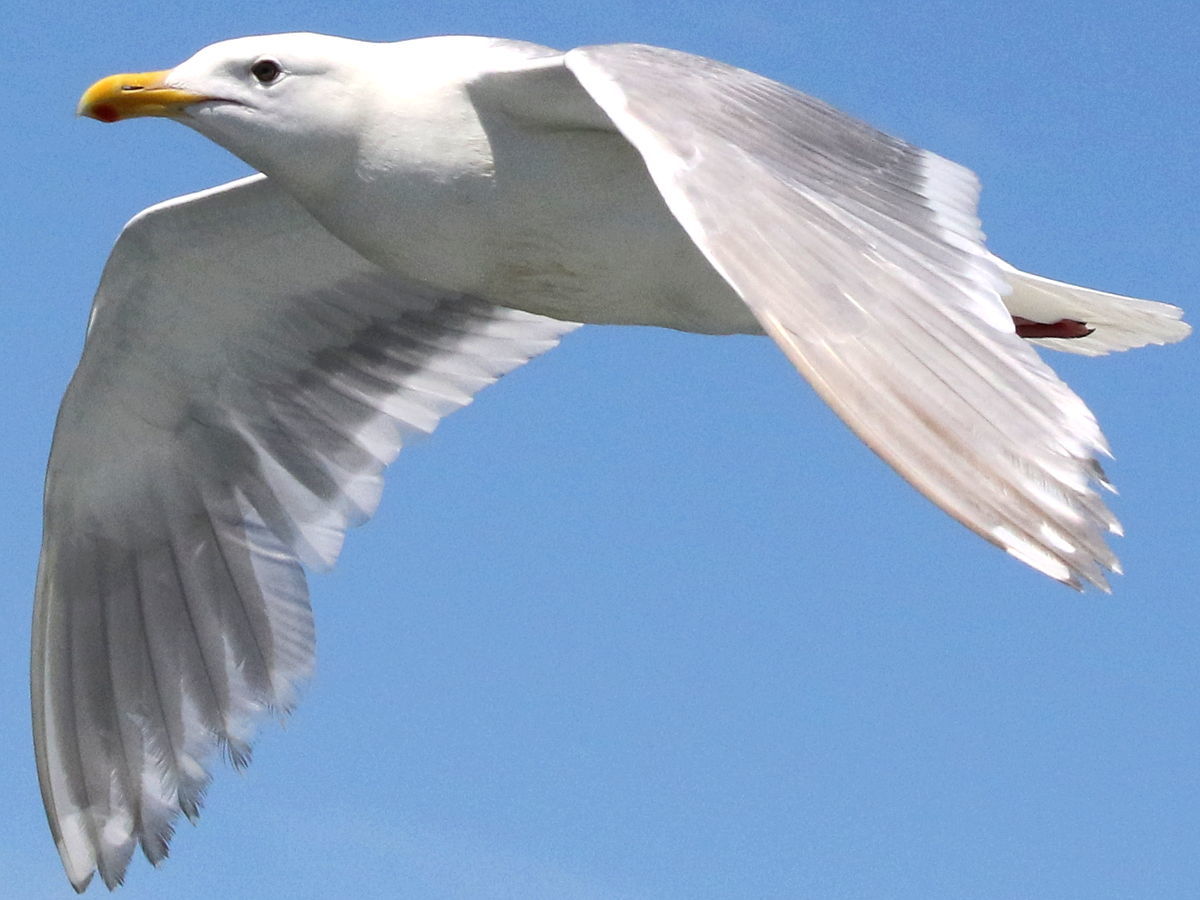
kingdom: Animalia
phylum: Chordata
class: Aves
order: Charadriiformes
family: Laridae
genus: Larus
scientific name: Larus glaucescens
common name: Glaucous-winged gull
